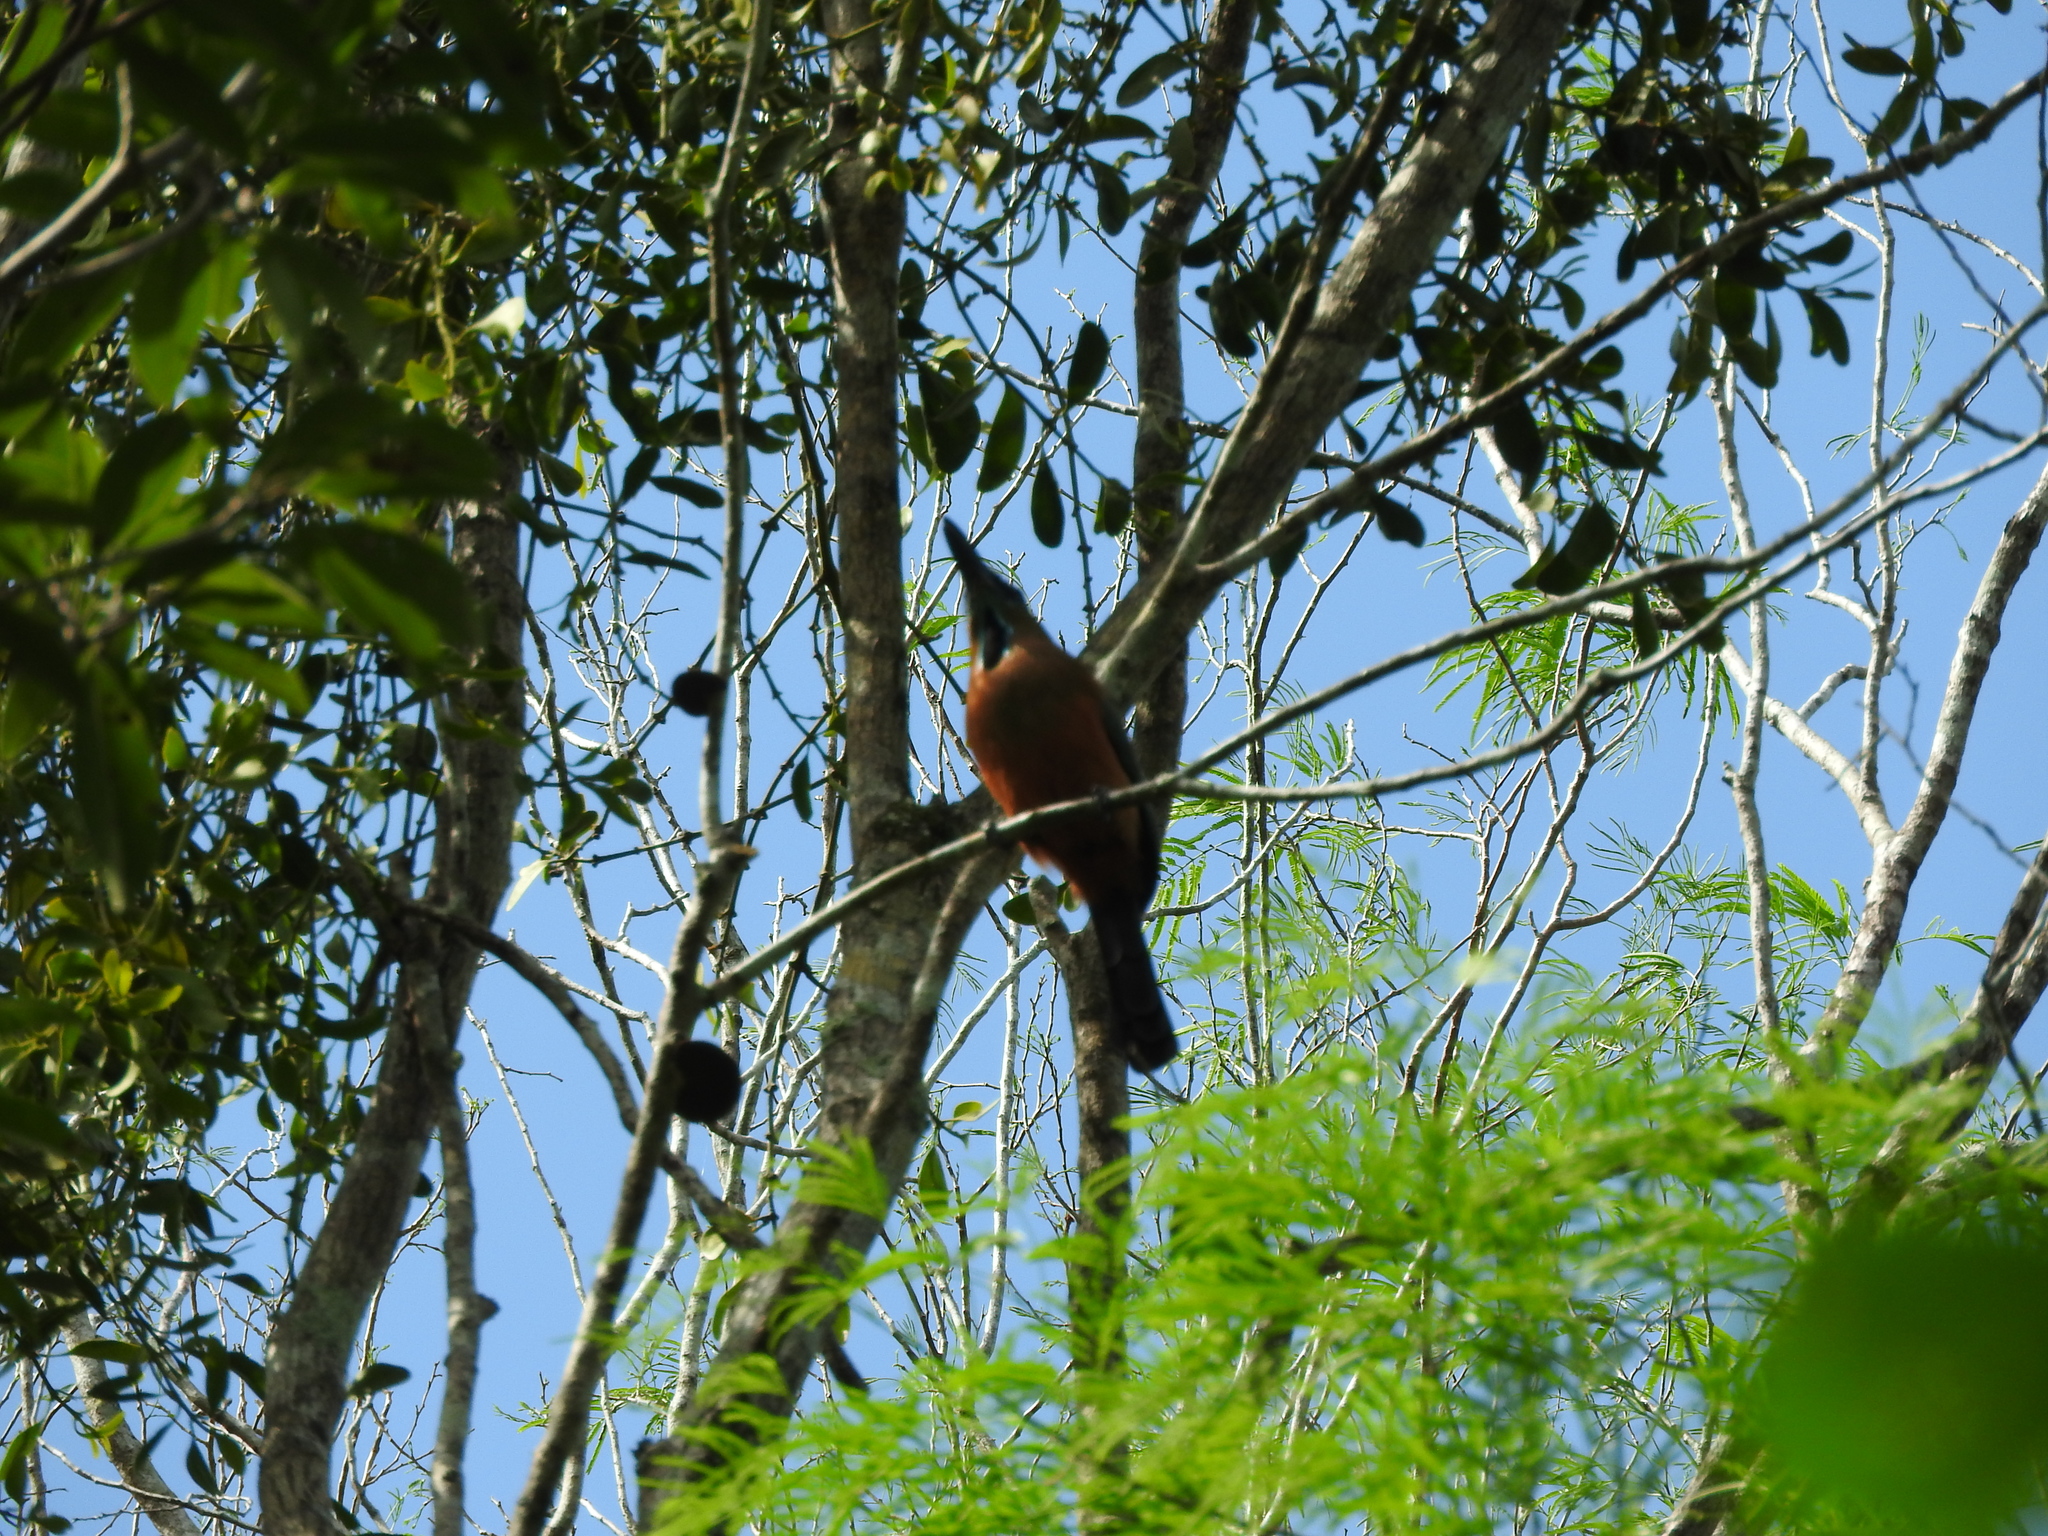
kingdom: Animalia
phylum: Chordata
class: Aves
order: Coraciiformes
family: Momotidae
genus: Eumomota
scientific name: Eumomota superciliosa
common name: Turquoise-browed motmot
